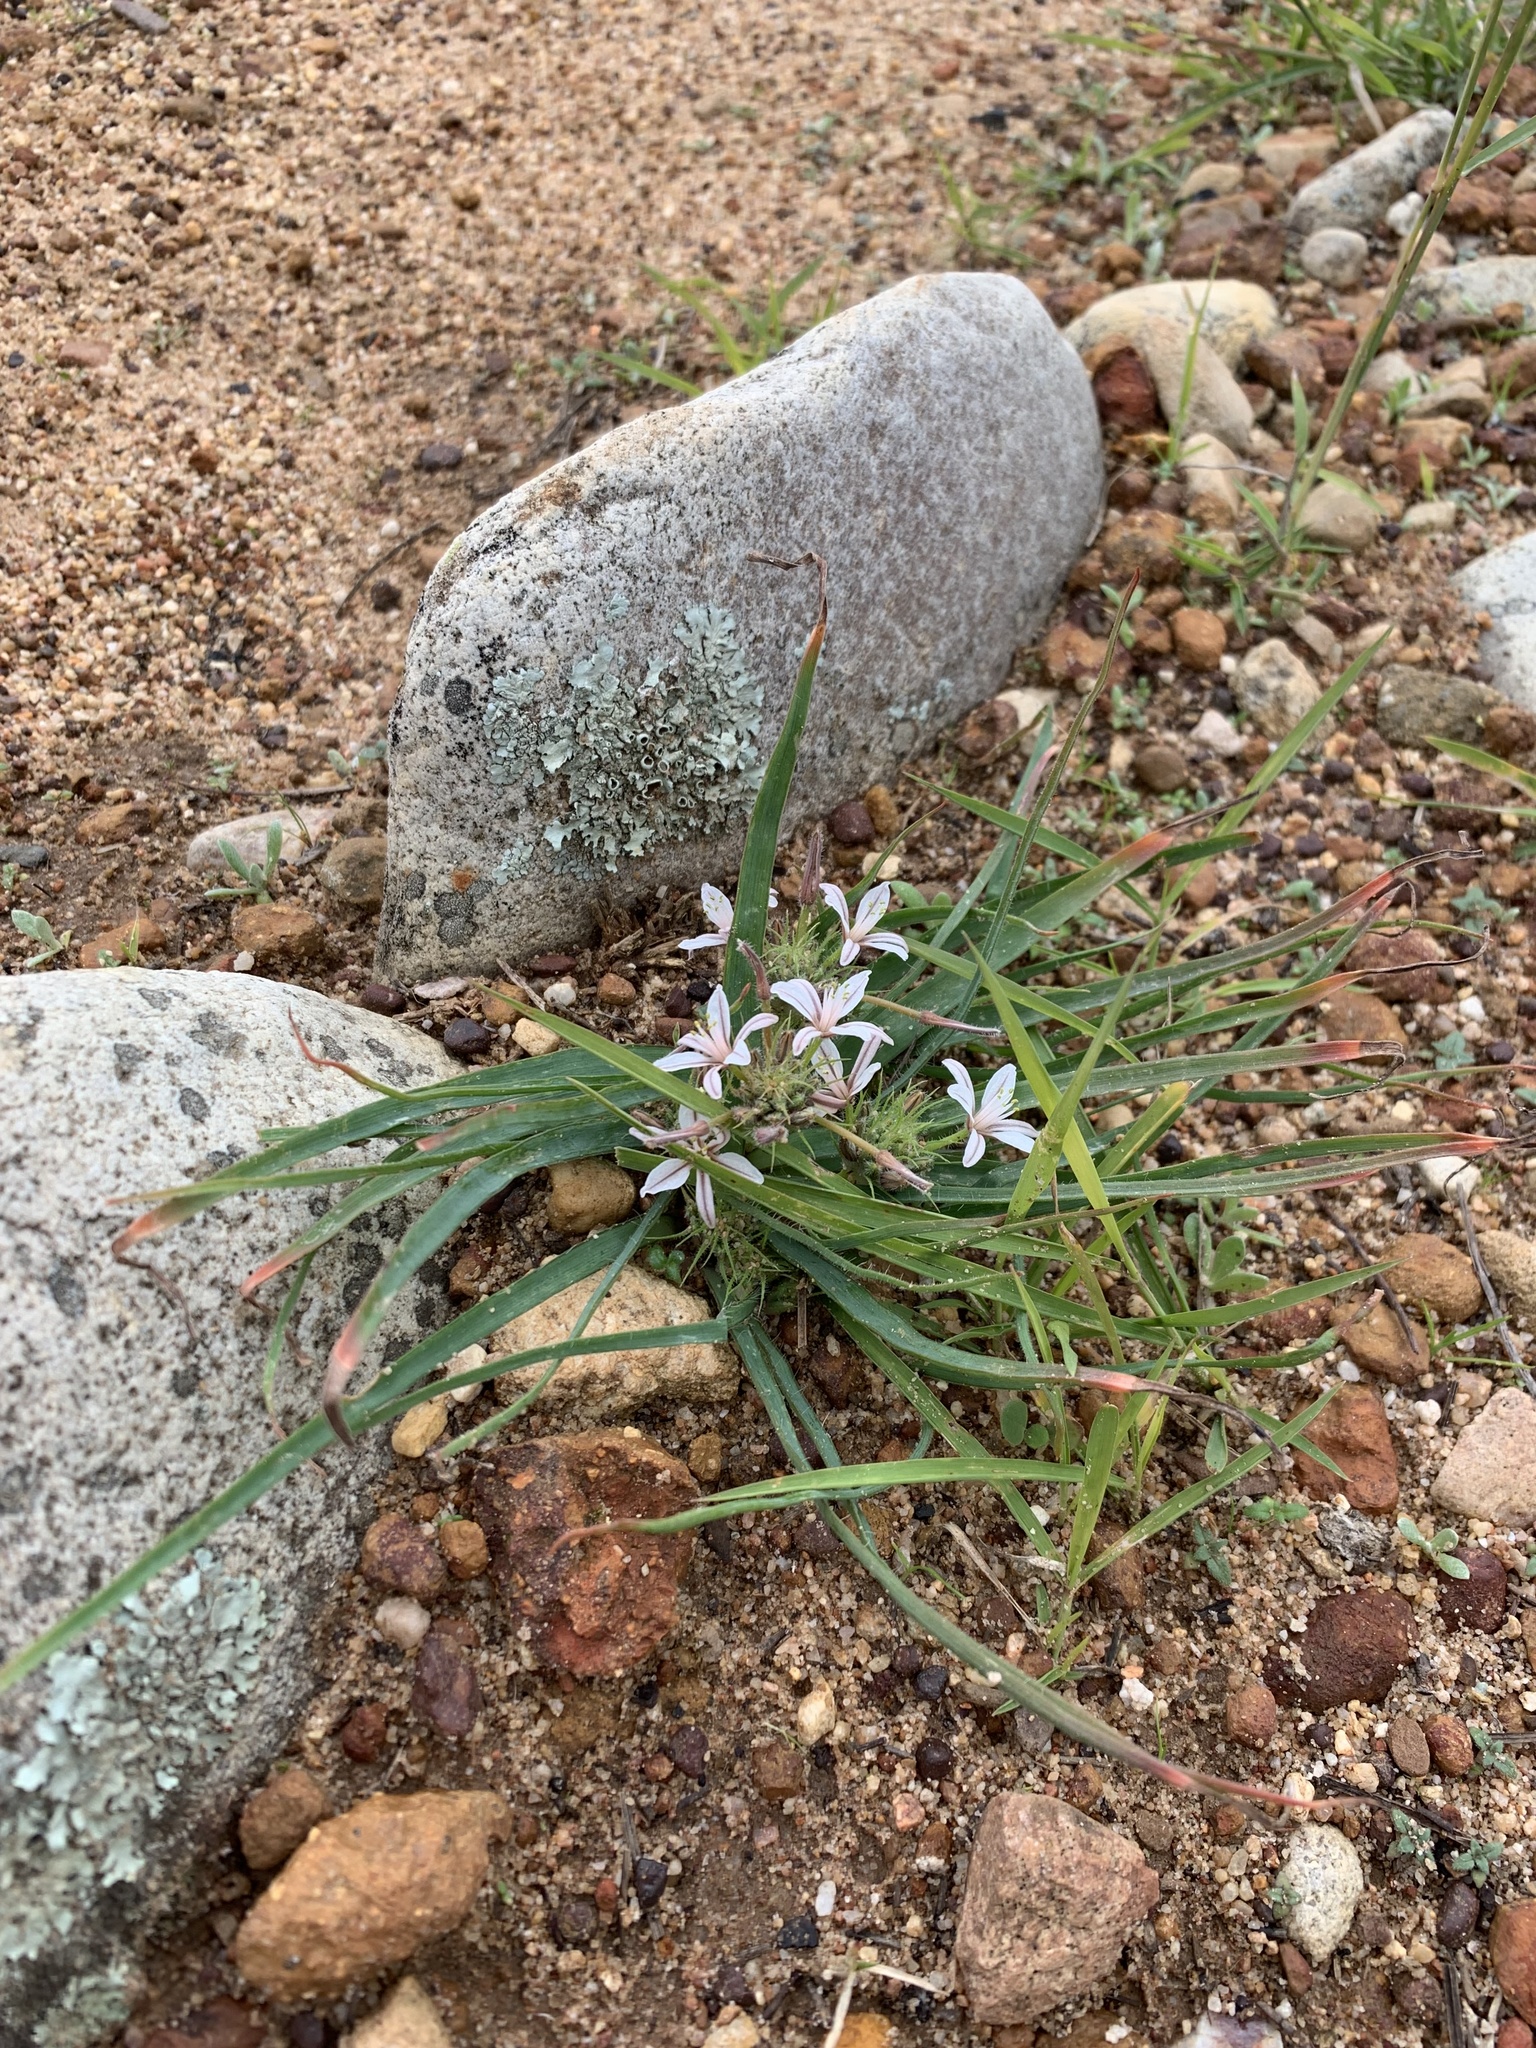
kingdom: Plantae
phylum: Tracheophyta
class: Liliopsida
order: Asparagales
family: Asphodelaceae
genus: Trachyandra
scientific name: Trachyandra hispida
